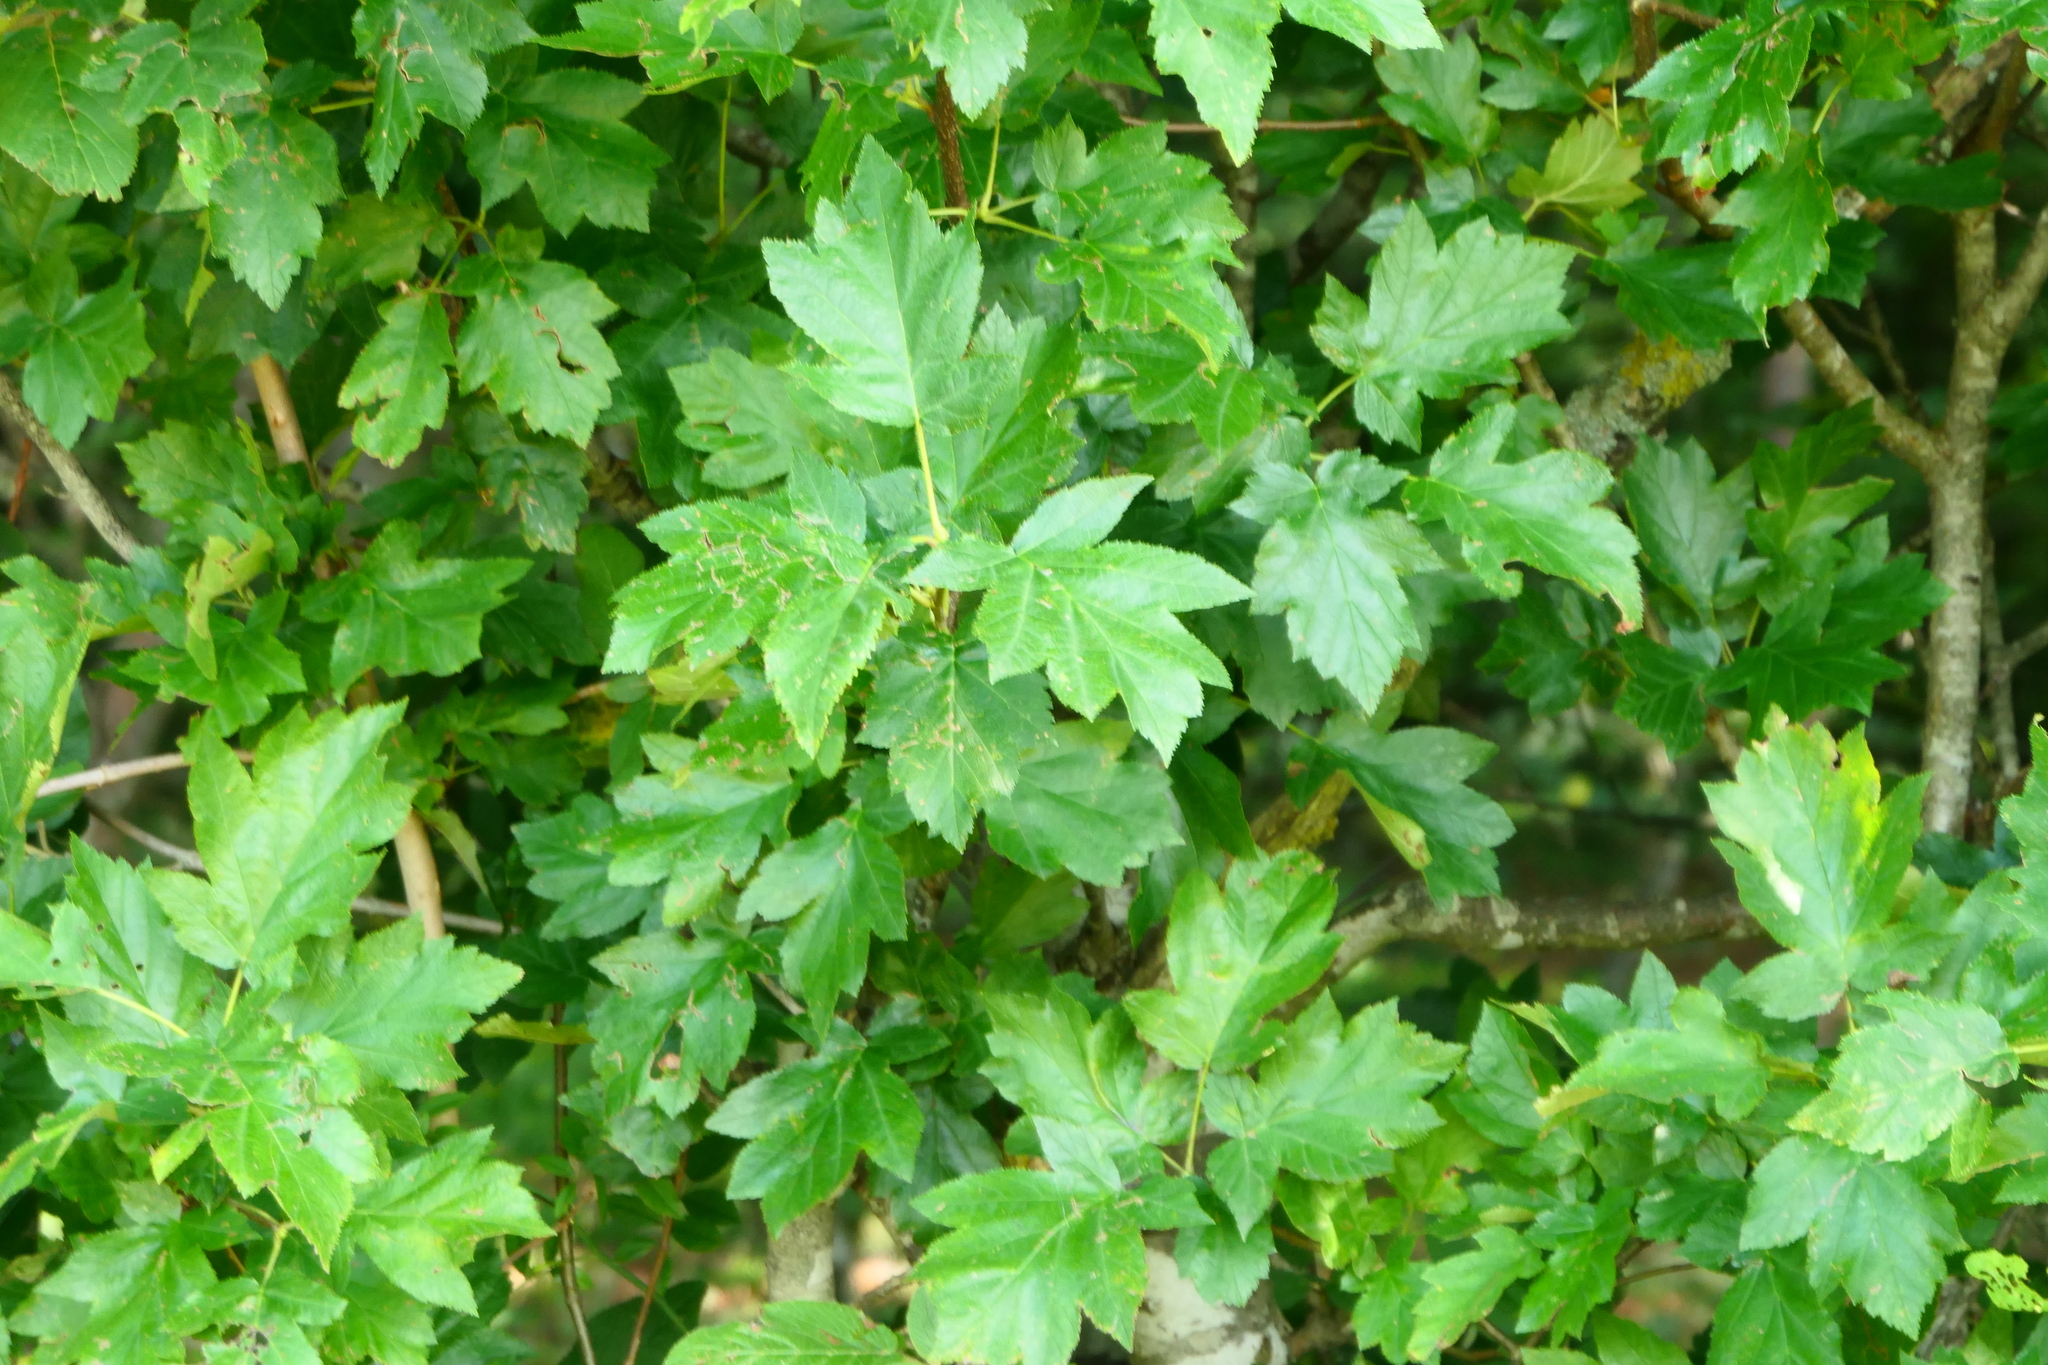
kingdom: Plantae
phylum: Tracheophyta
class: Magnoliopsida
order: Rosales
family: Rosaceae
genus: Torminalis
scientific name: Torminalis glaberrima
